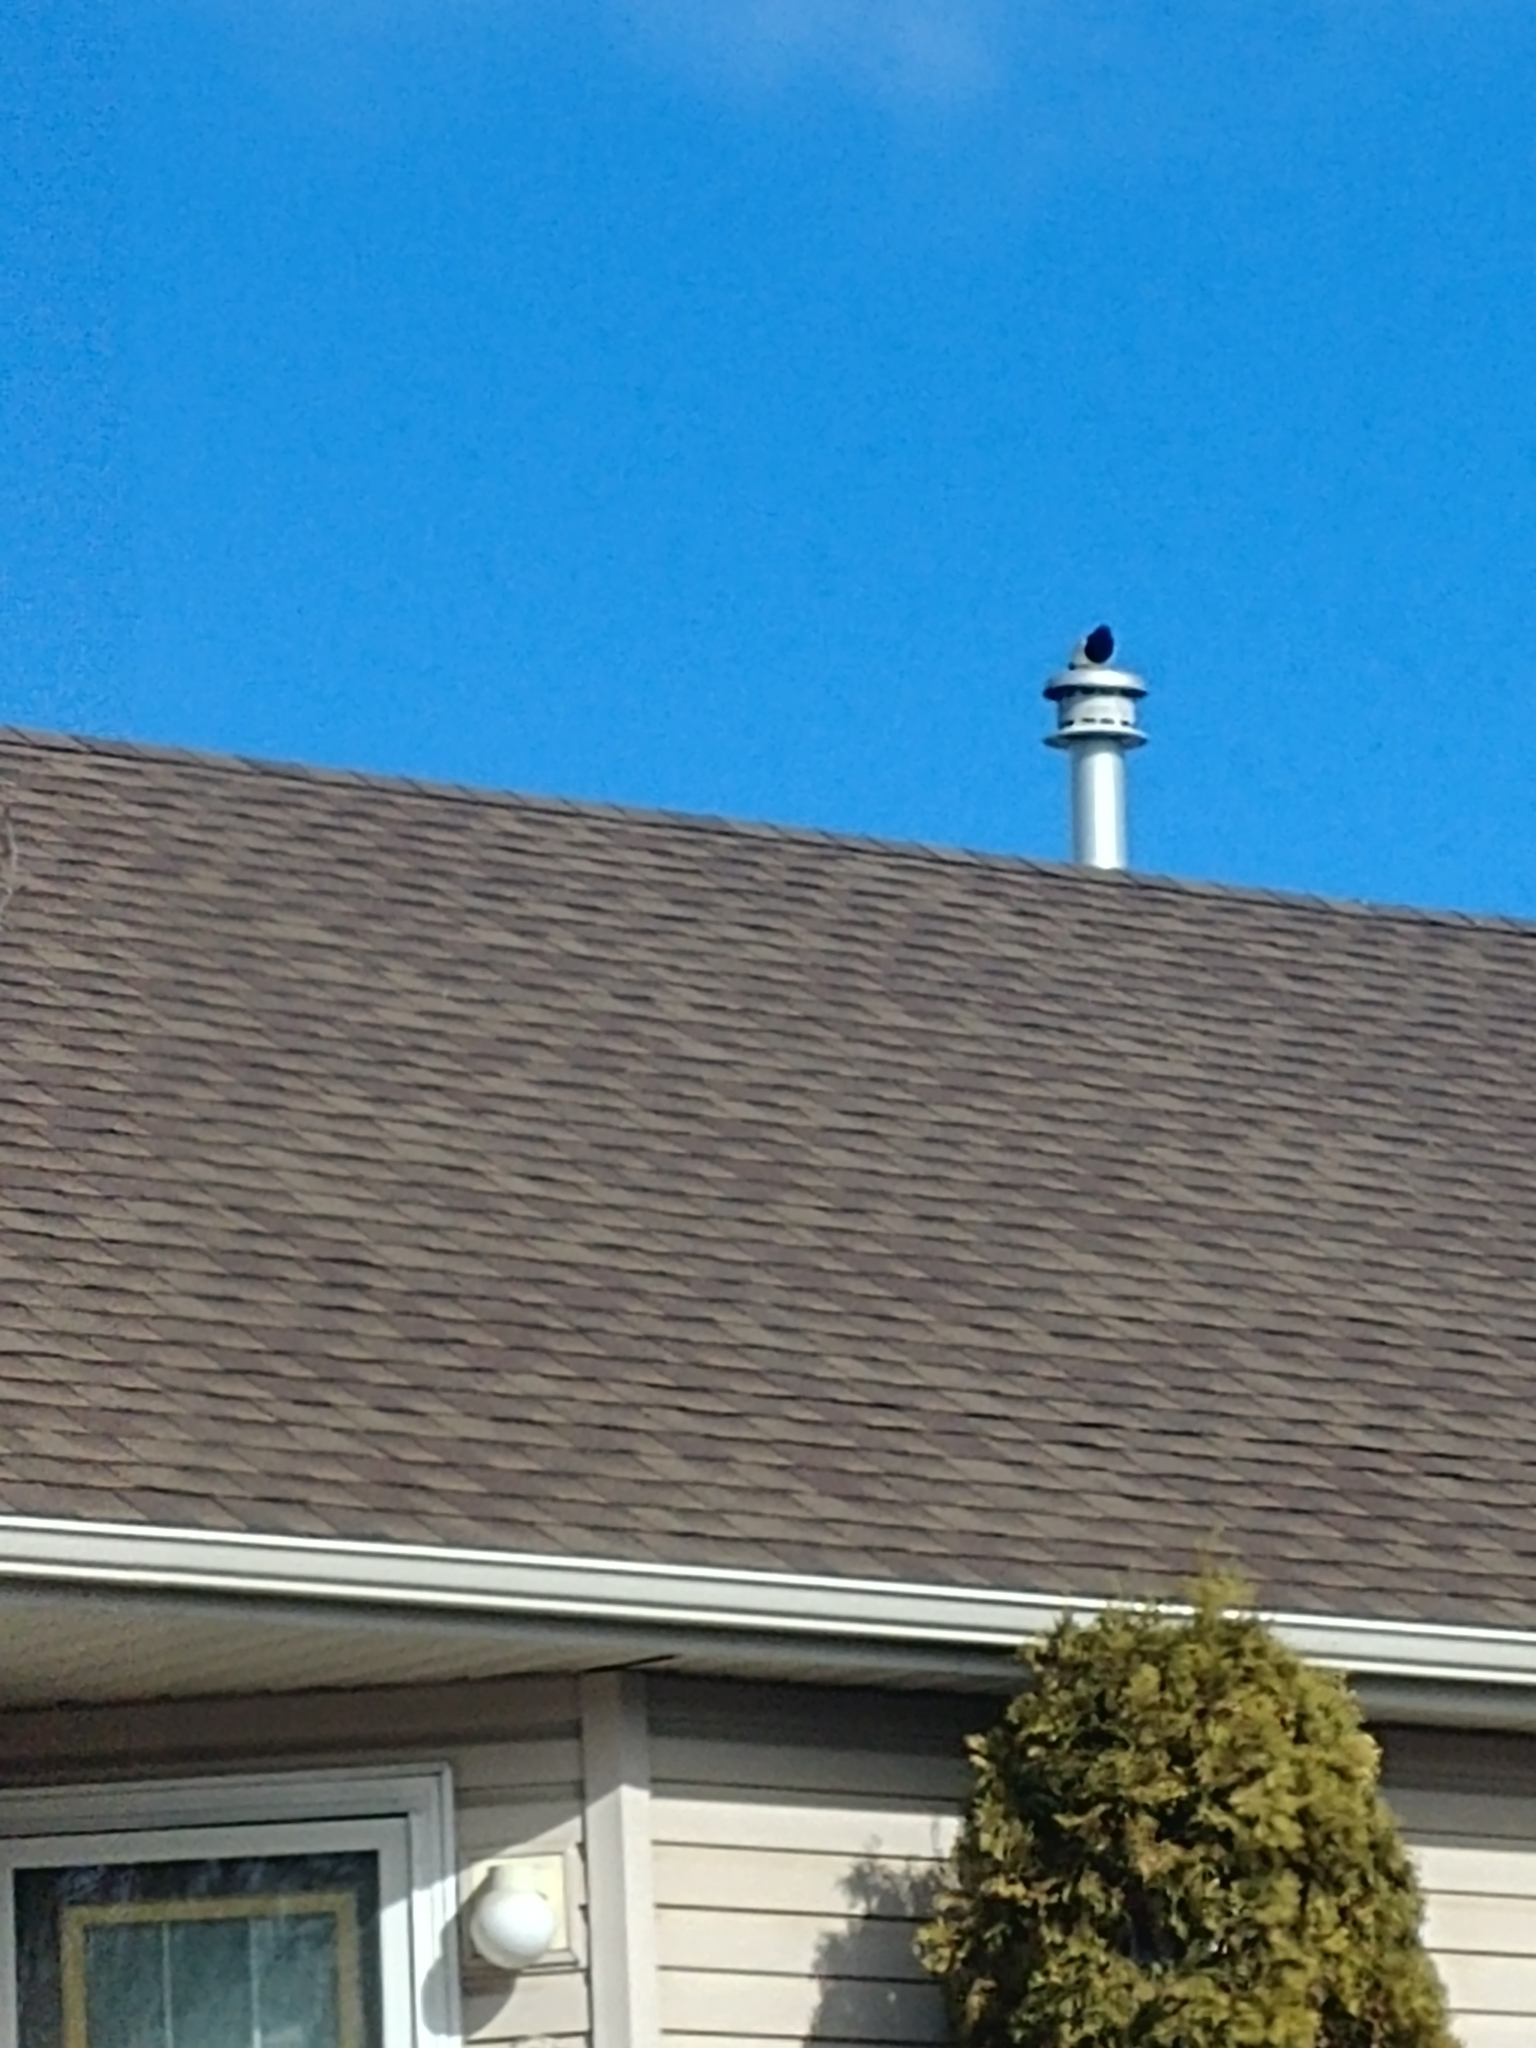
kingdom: Animalia
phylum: Chordata
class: Aves
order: Passeriformes
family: Corvidae
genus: Pica
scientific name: Pica hudsonia
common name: Black-billed magpie
